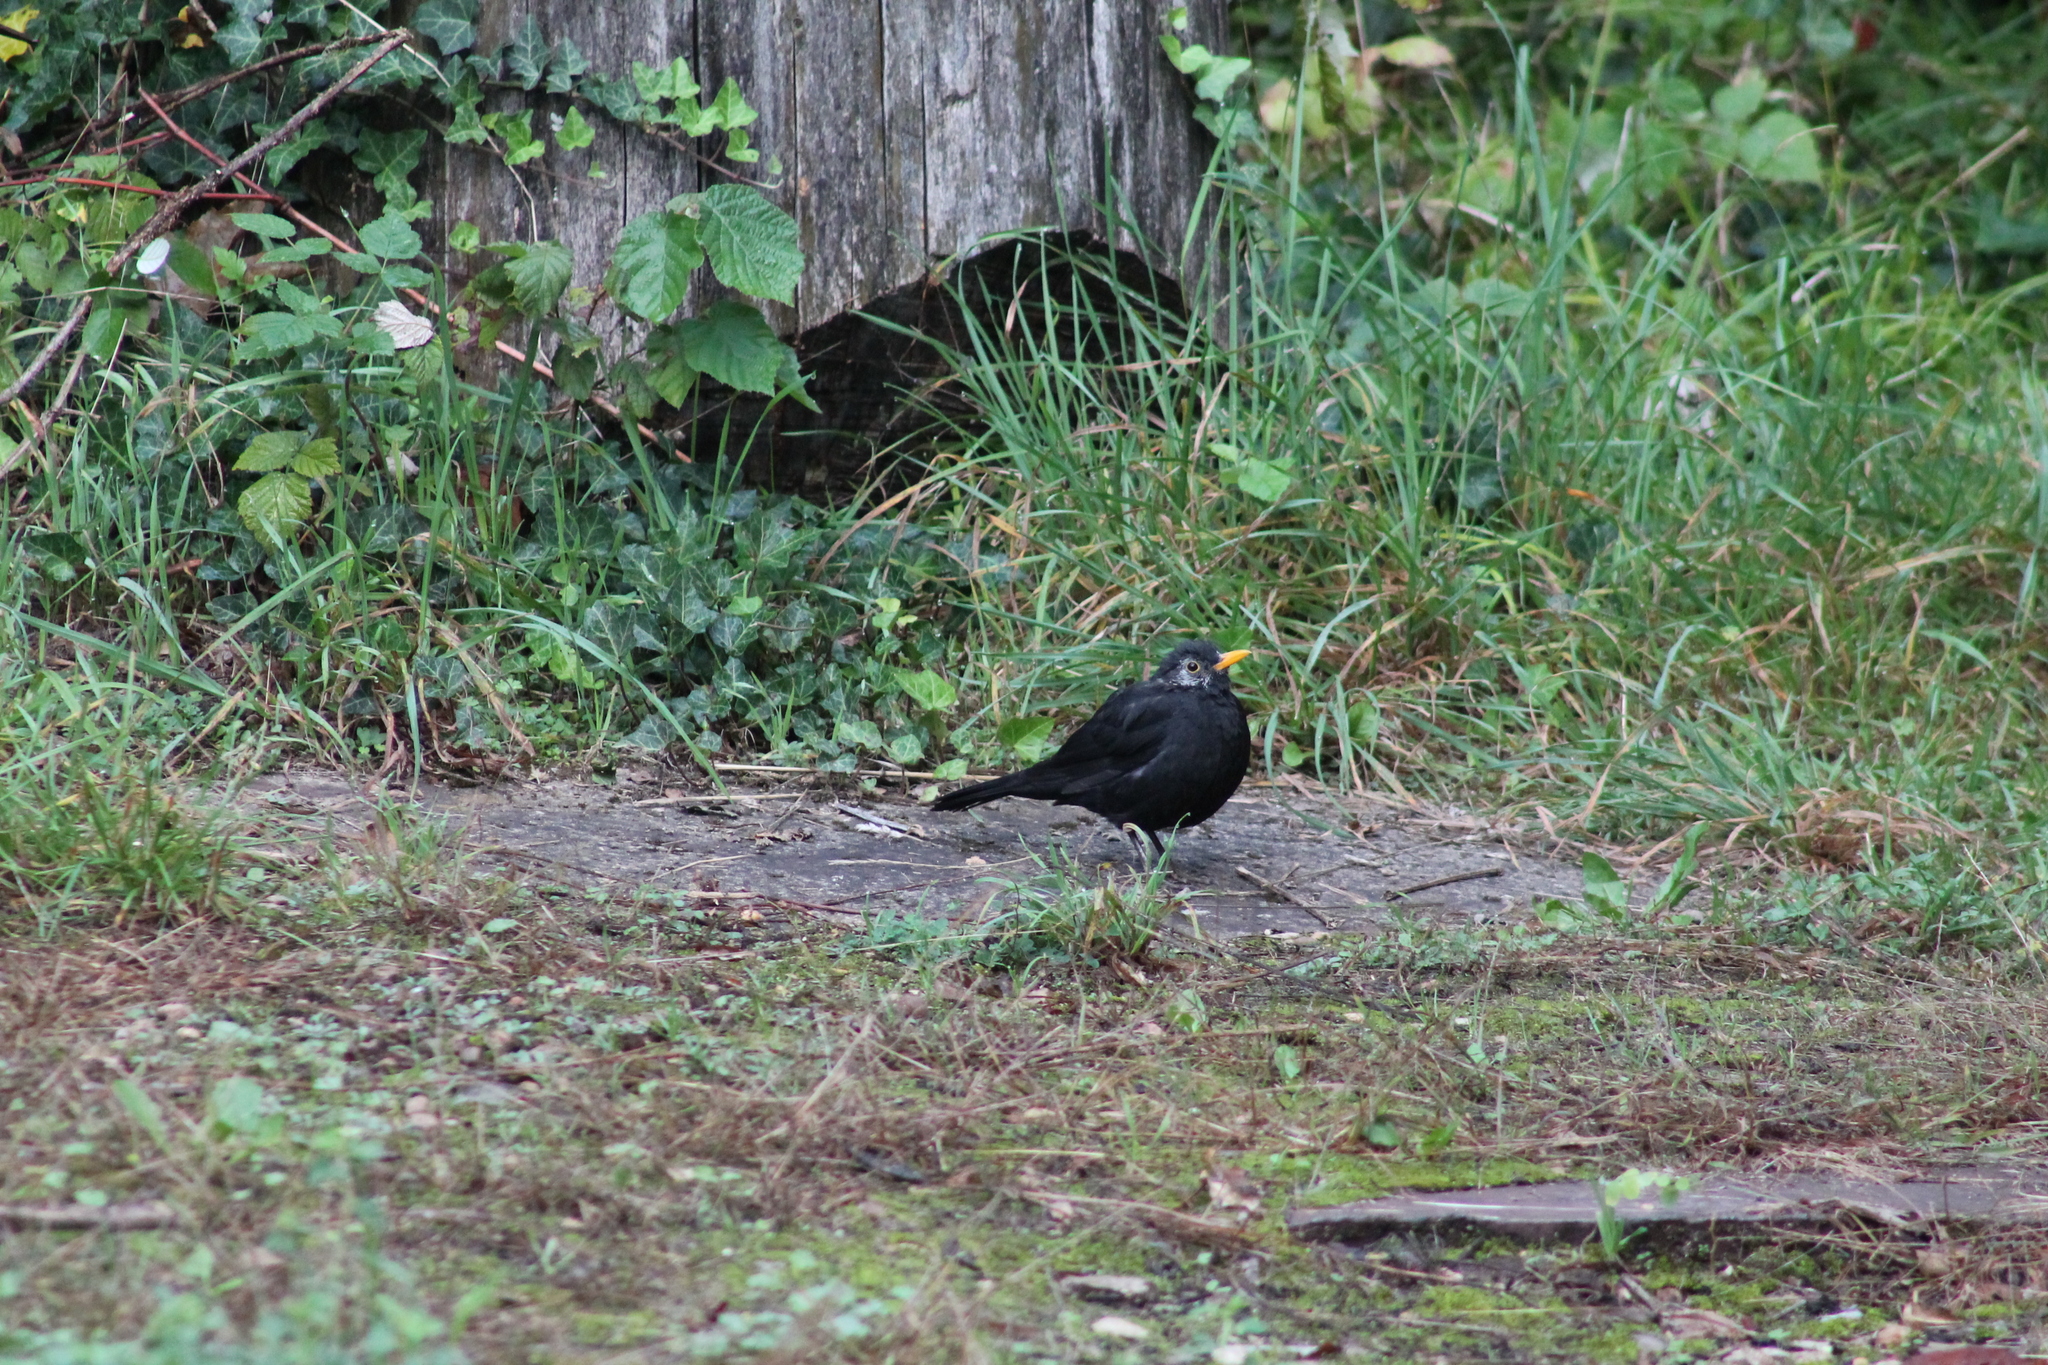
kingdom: Animalia
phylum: Chordata
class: Aves
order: Passeriformes
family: Turdidae
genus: Turdus
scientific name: Turdus merula
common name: Common blackbird
